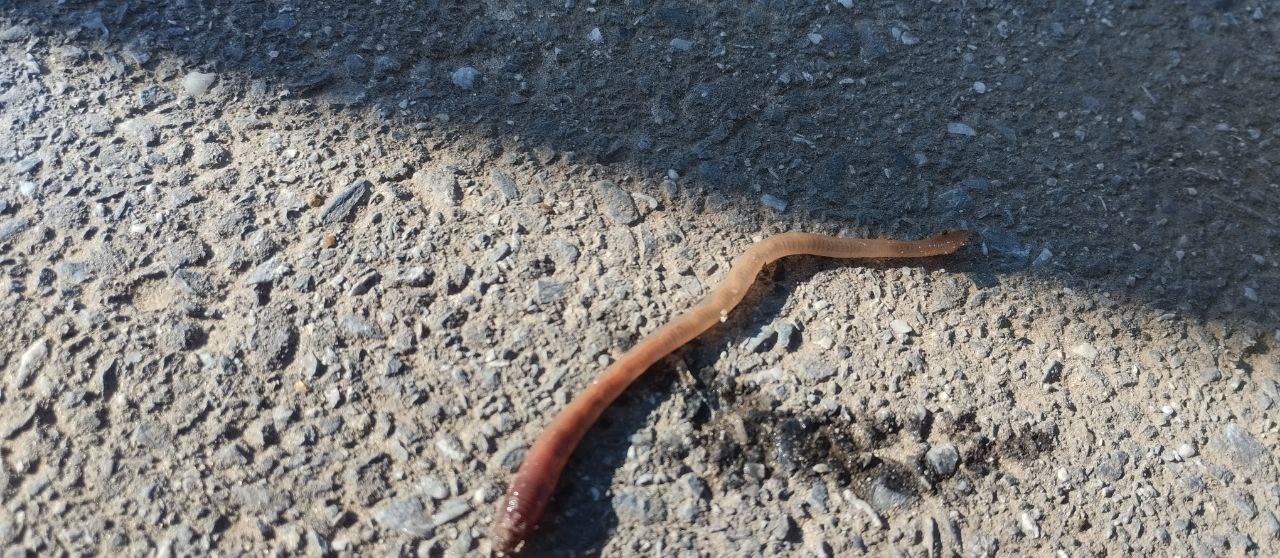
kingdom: Animalia
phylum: Annelida
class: Clitellata
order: Crassiclitellata
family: Lumbricidae
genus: Lumbricus
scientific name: Lumbricus terrestris
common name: Common earthworm
